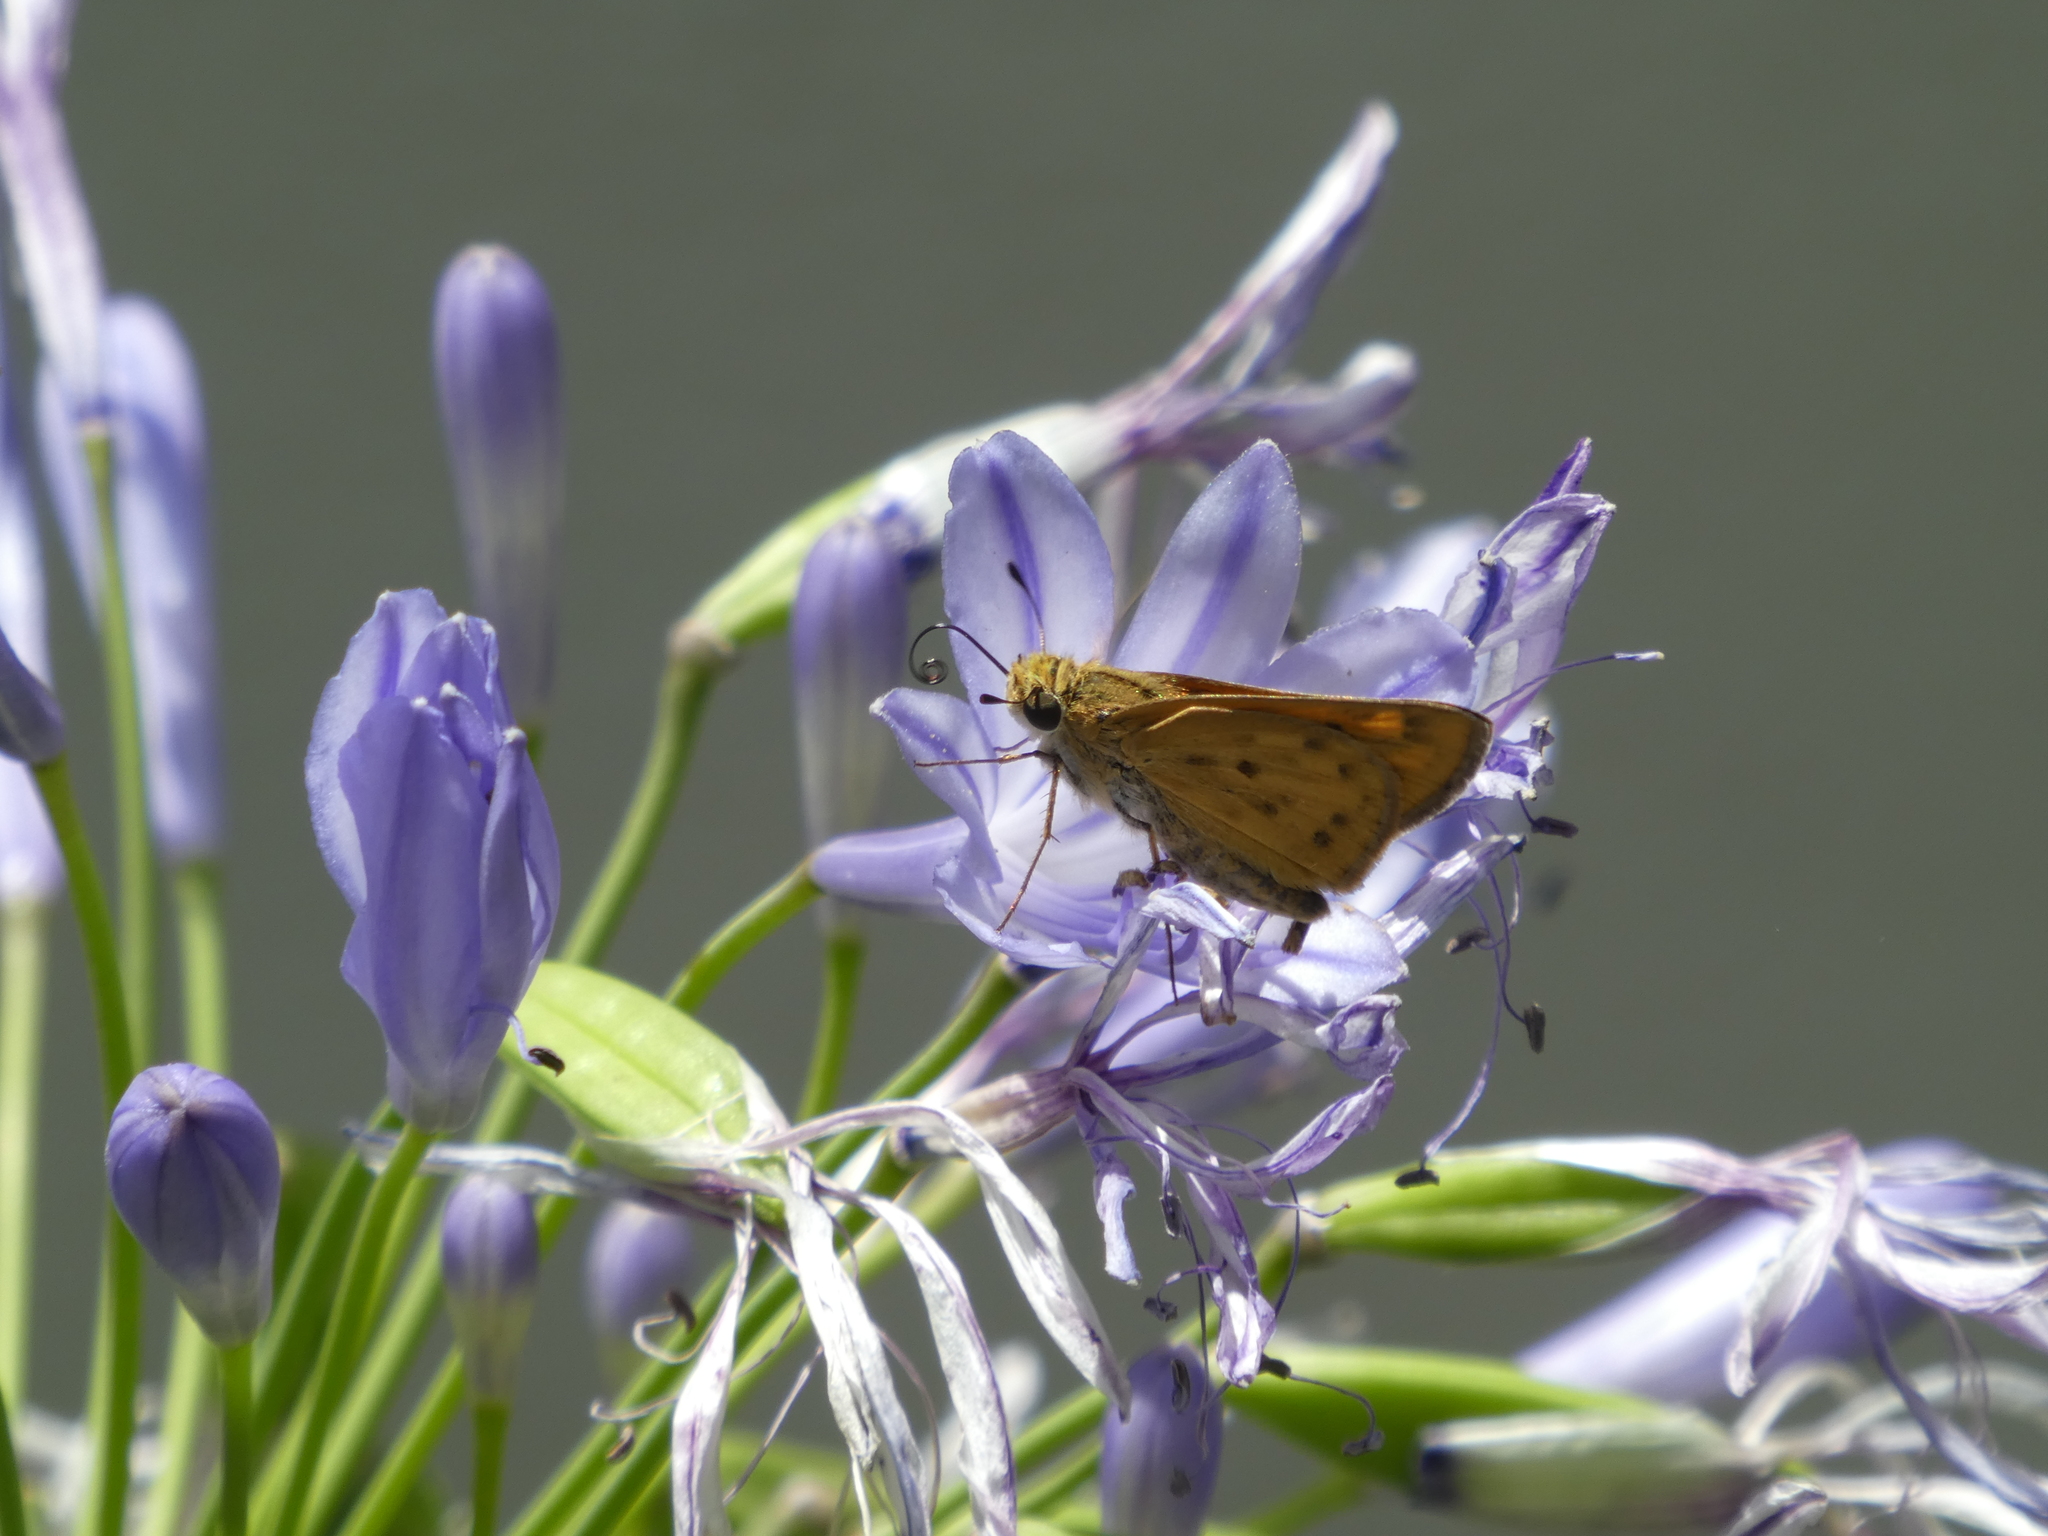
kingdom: Animalia
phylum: Arthropoda
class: Insecta
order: Lepidoptera
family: Hesperiidae
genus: Hylephila
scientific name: Hylephila phyleus
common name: Fiery skipper
